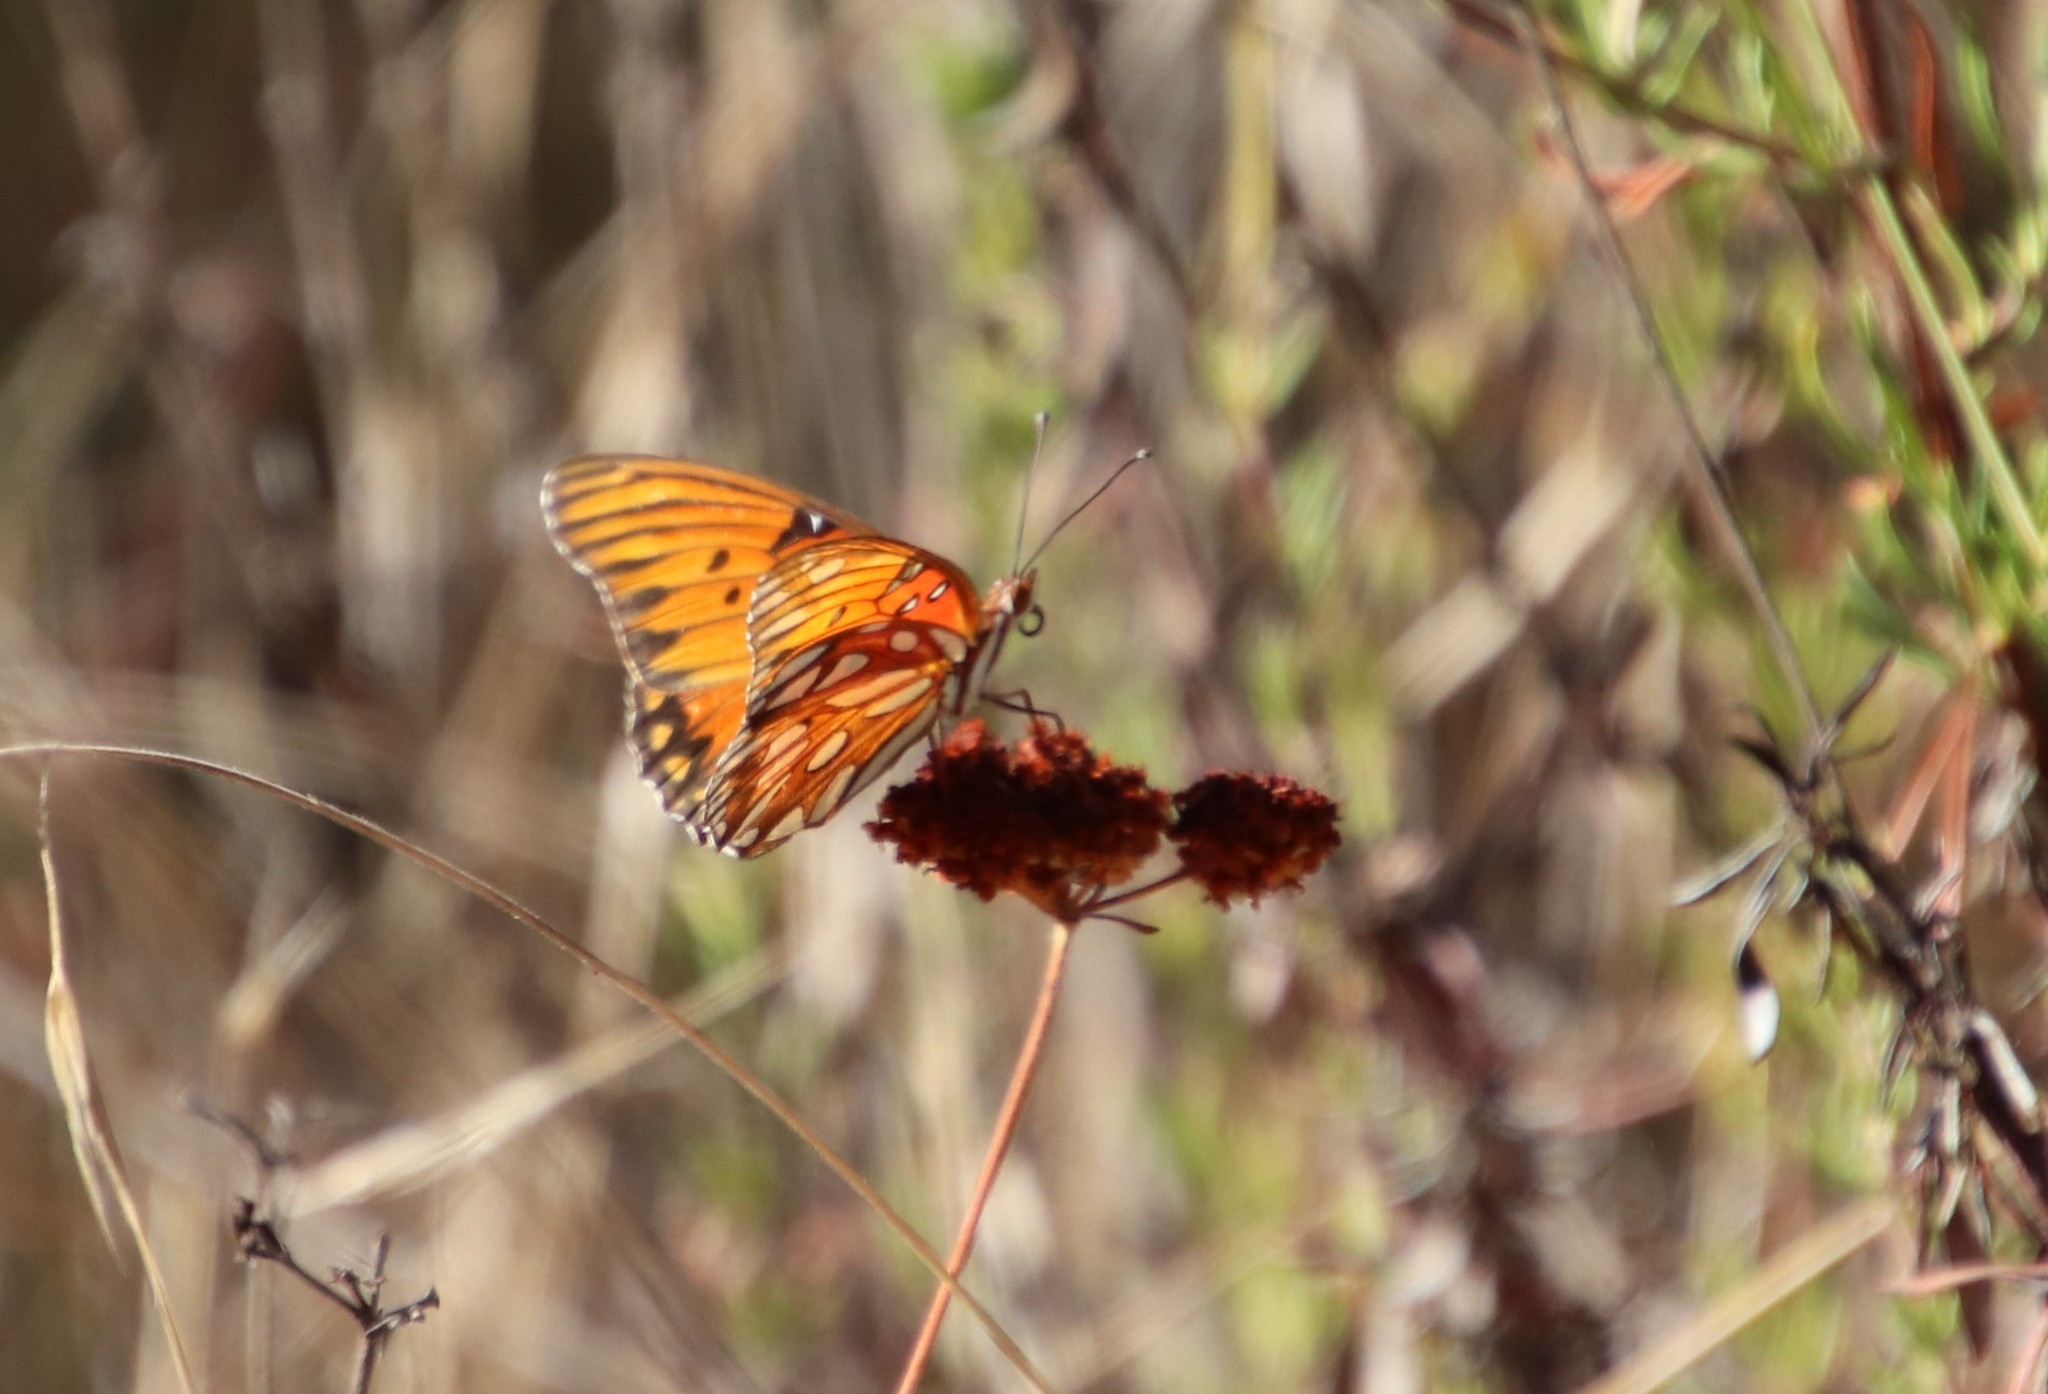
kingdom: Animalia
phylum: Arthropoda
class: Insecta
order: Lepidoptera
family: Nymphalidae
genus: Dione
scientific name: Dione vanillae
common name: Gulf fritillary
